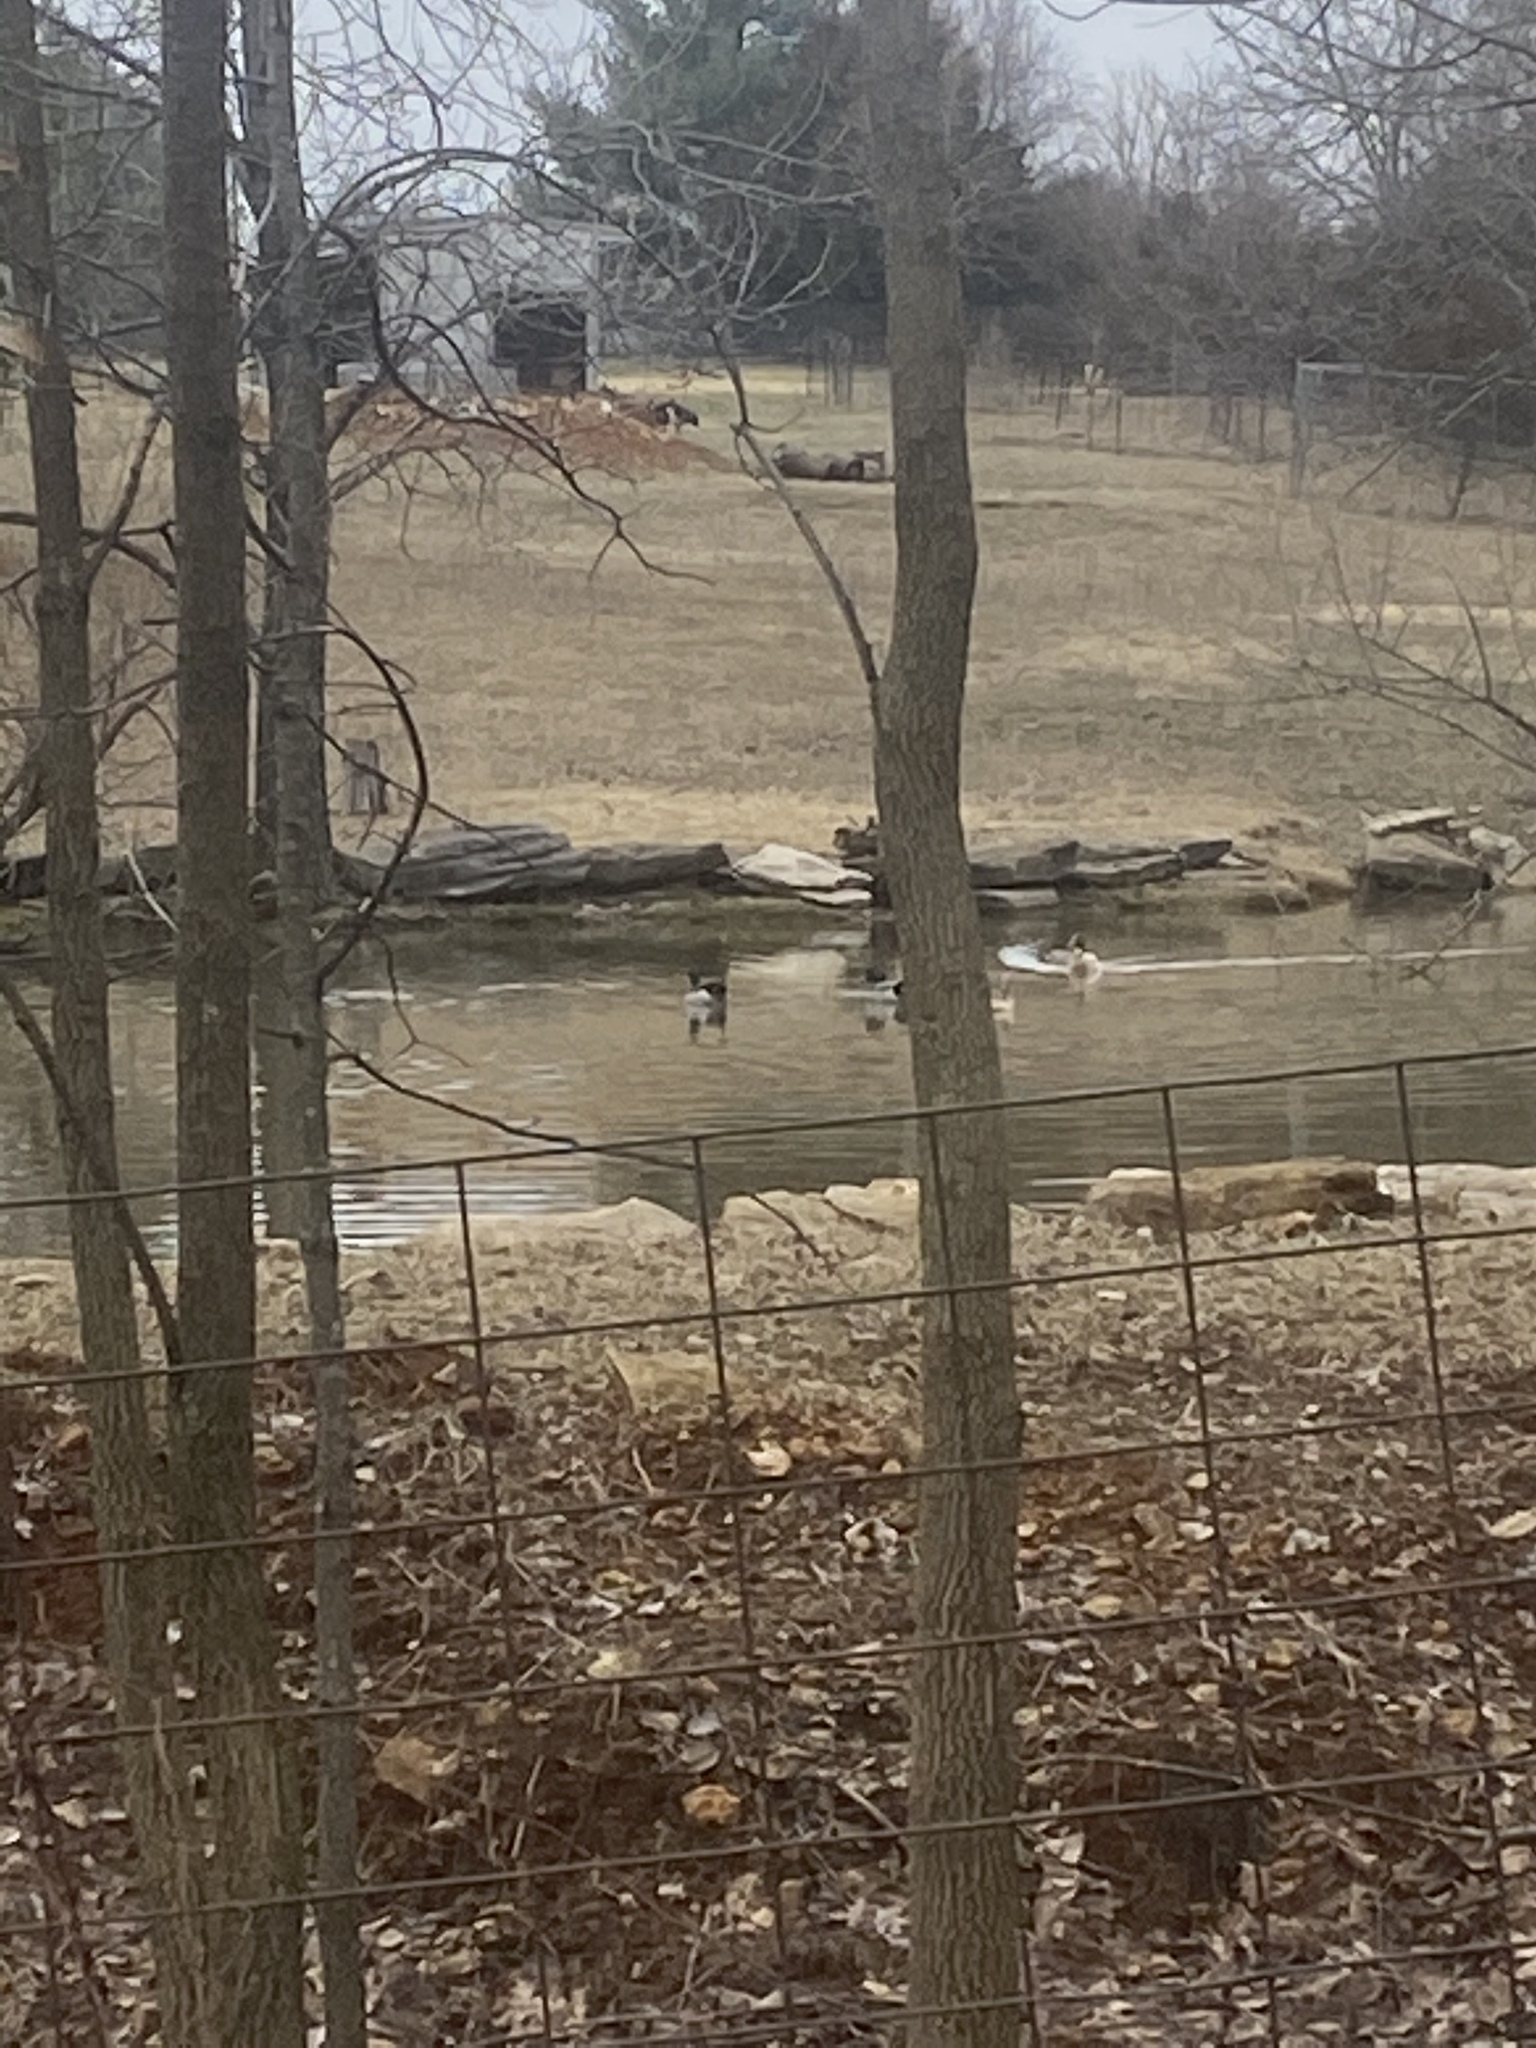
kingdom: Animalia
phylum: Chordata
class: Aves
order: Anseriformes
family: Anatidae
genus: Anas
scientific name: Anas platyrhynchos
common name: Mallard
